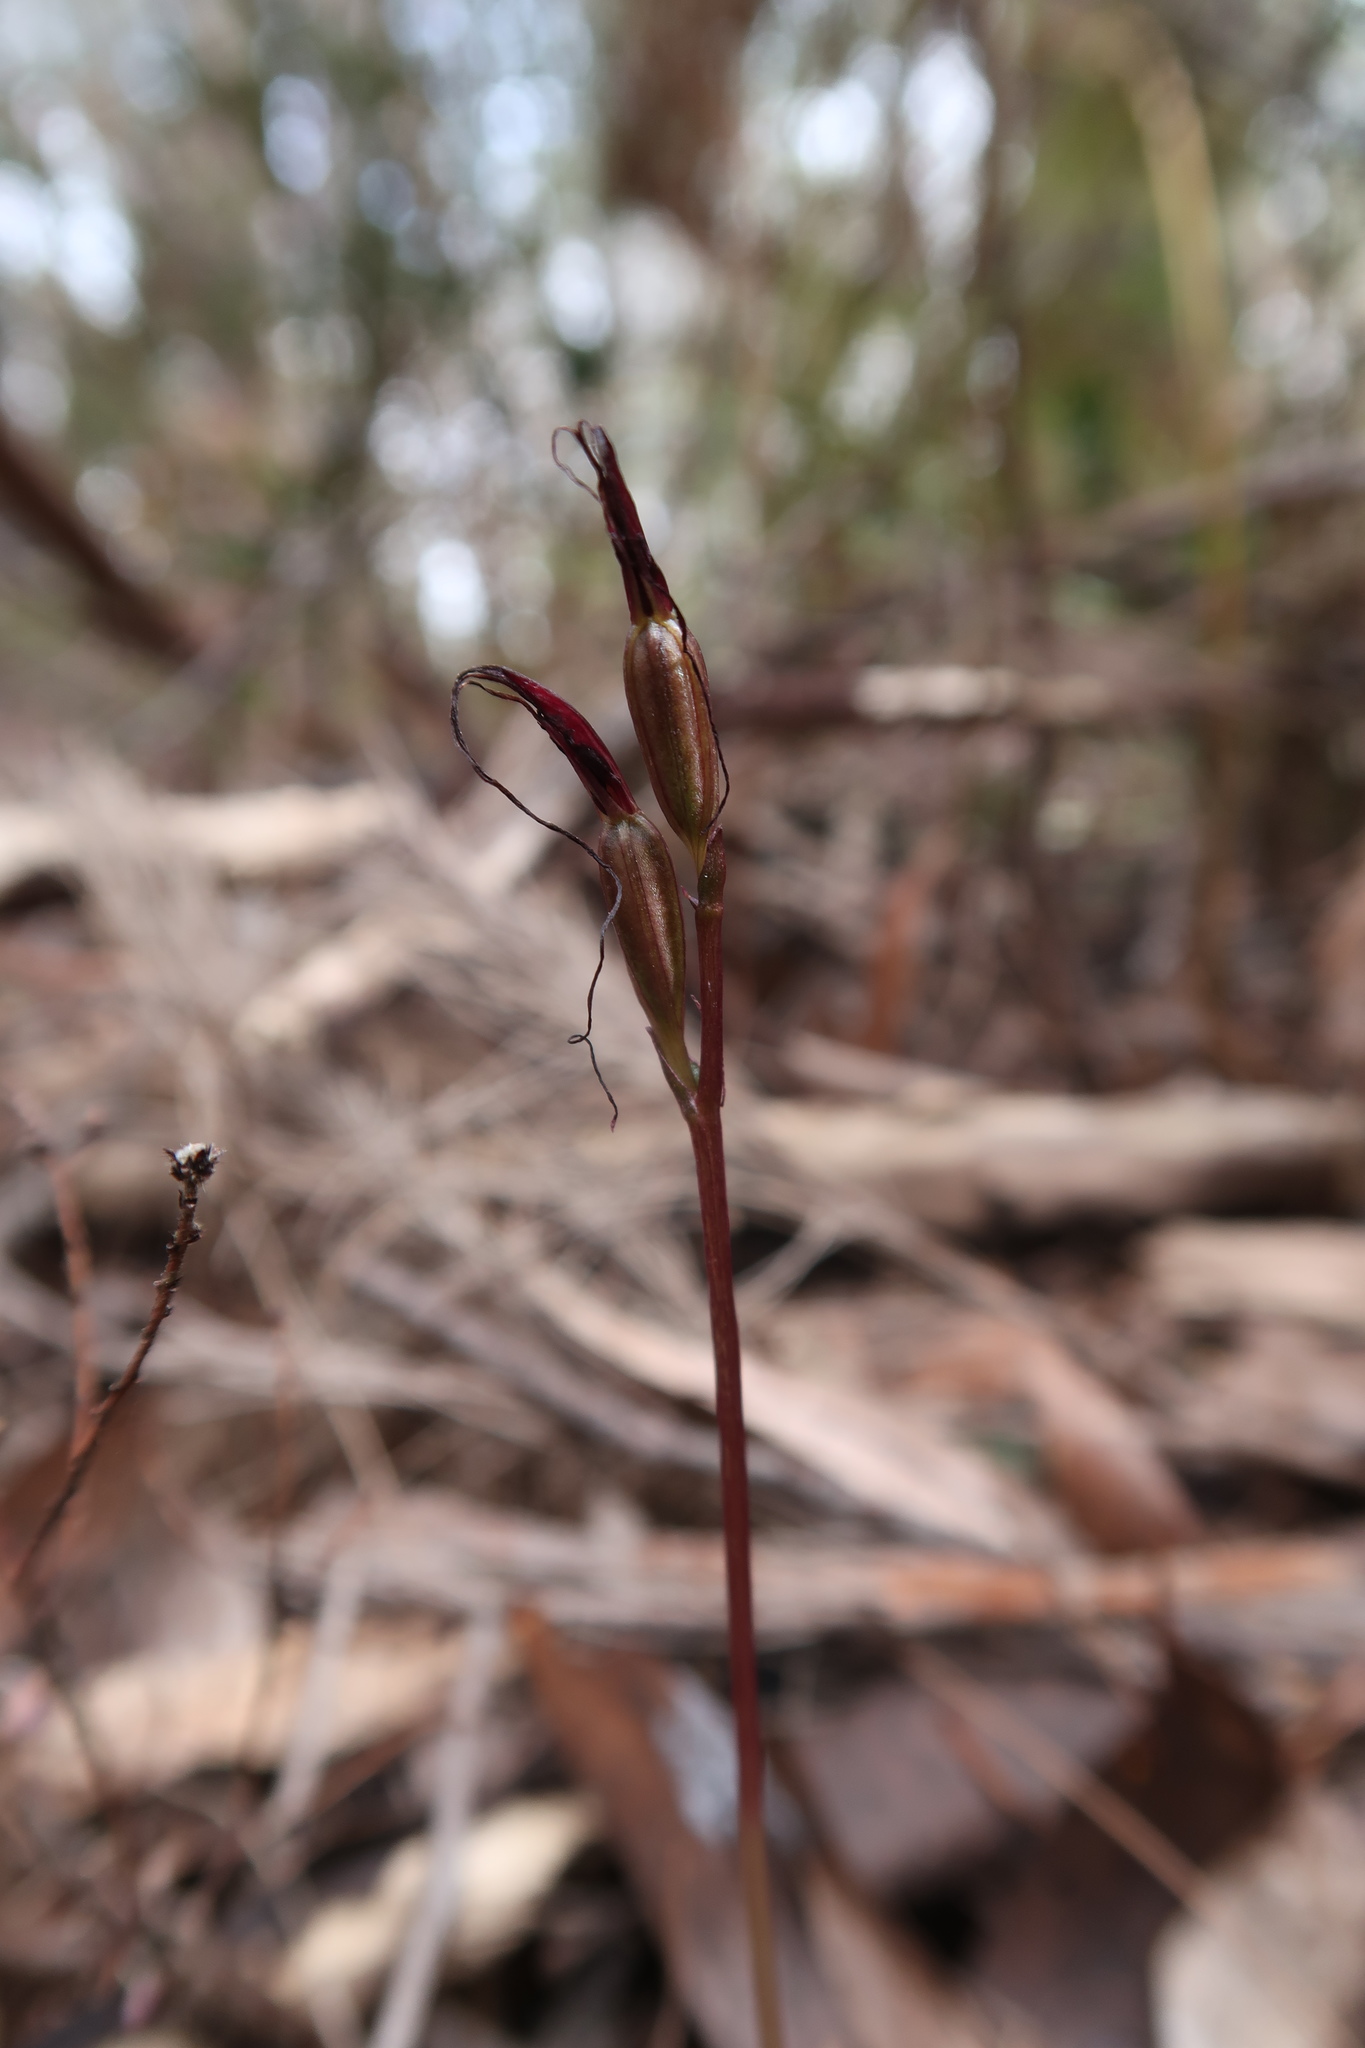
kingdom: Plantae
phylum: Tracheophyta
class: Liliopsida
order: Asparagales
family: Orchidaceae
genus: Acianthus
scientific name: Acianthus caudatus
